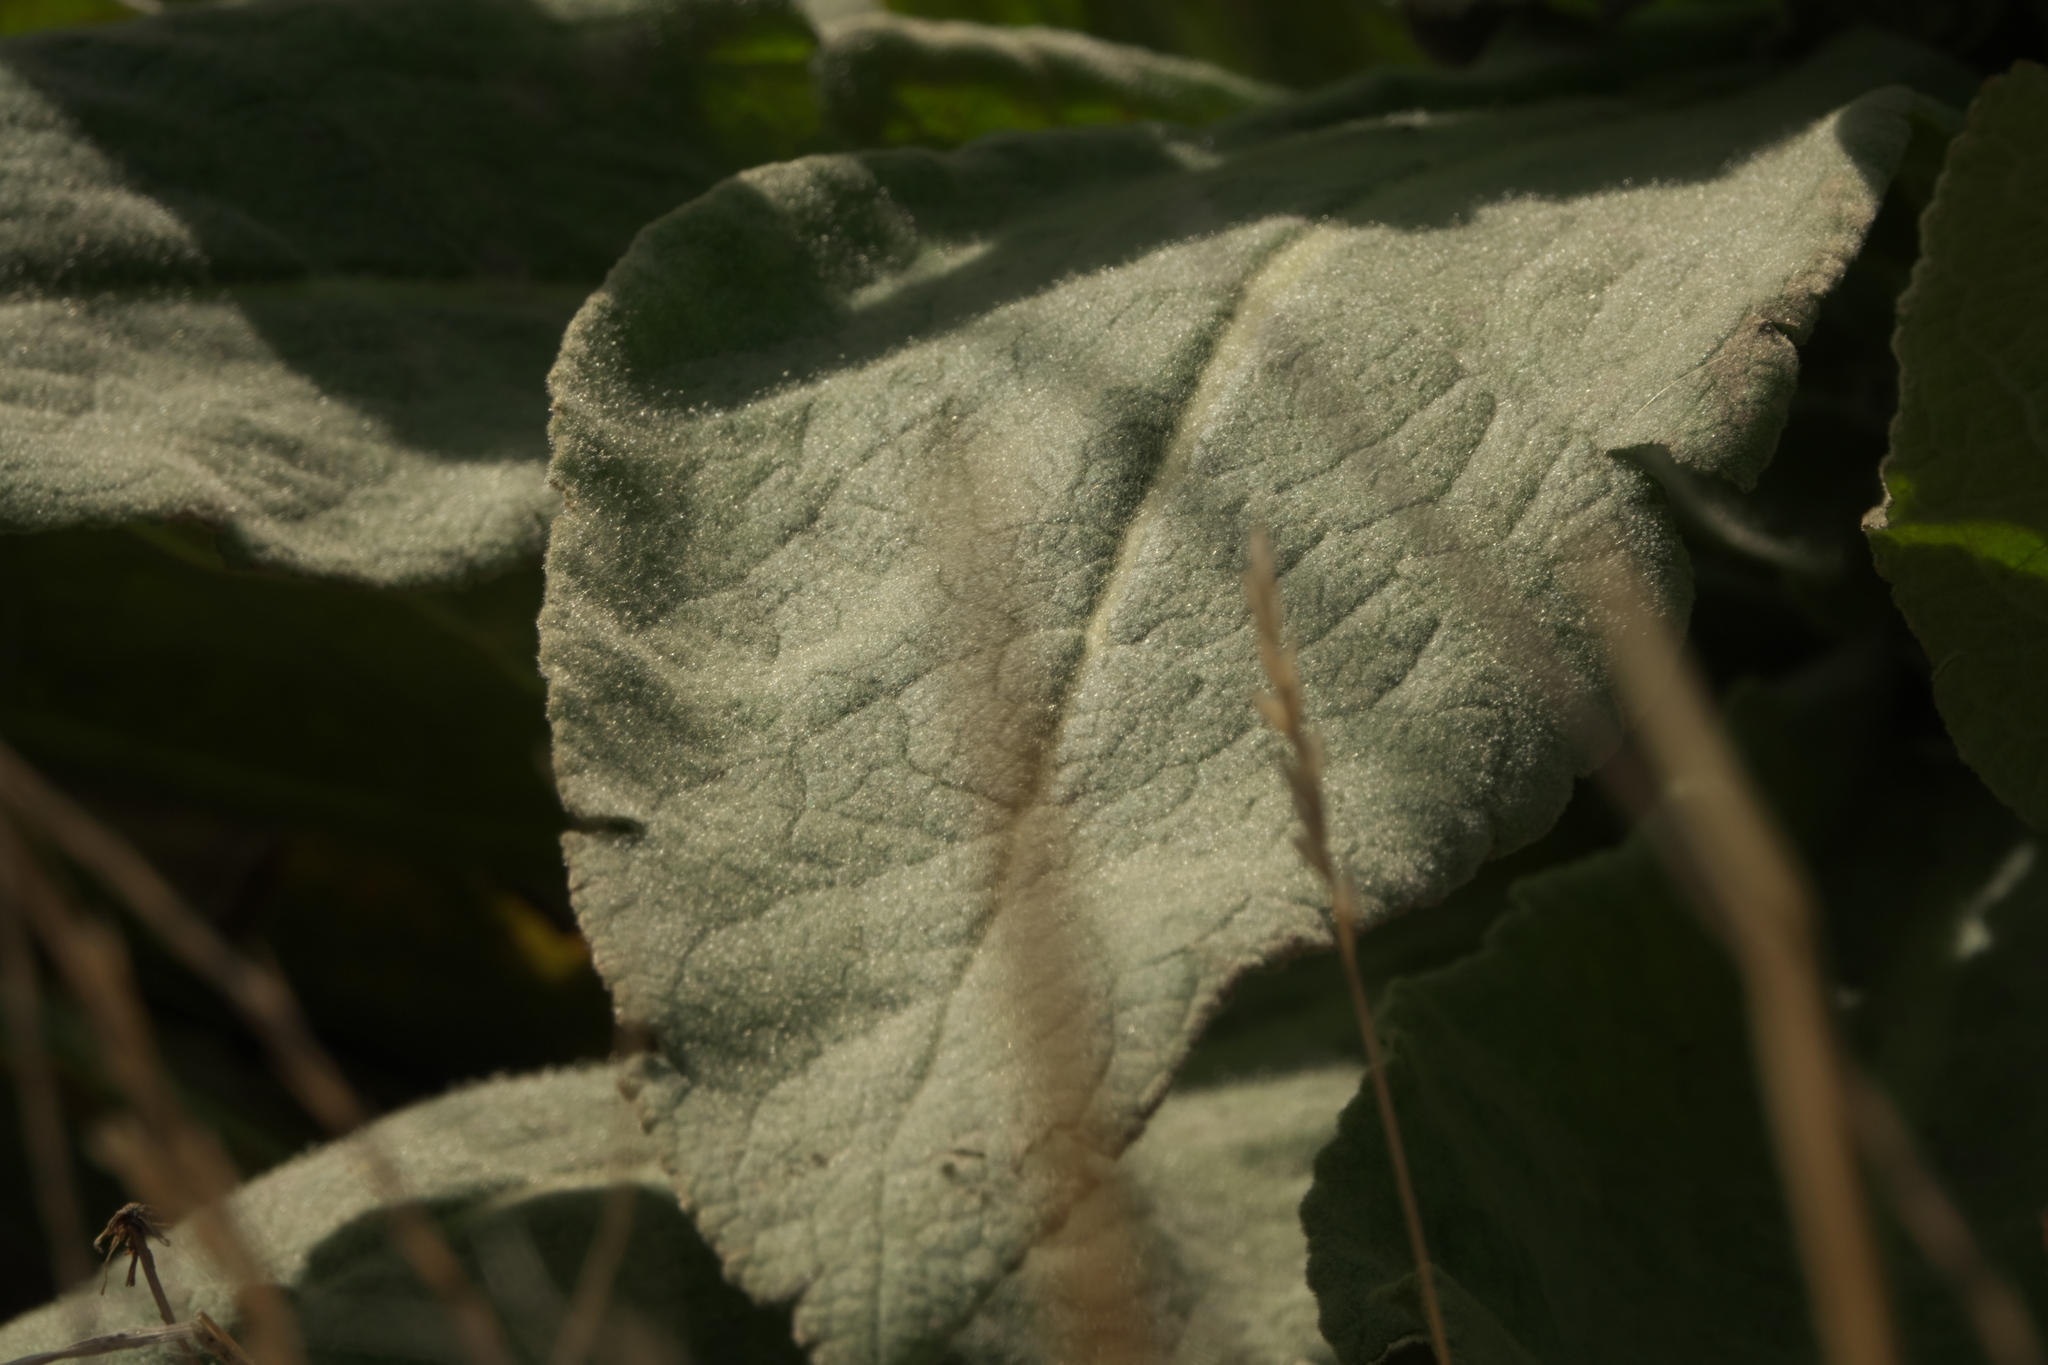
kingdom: Plantae
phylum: Tracheophyta
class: Magnoliopsida
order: Lamiales
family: Scrophulariaceae
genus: Verbascum
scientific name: Verbascum thapsus
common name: Common mullein
